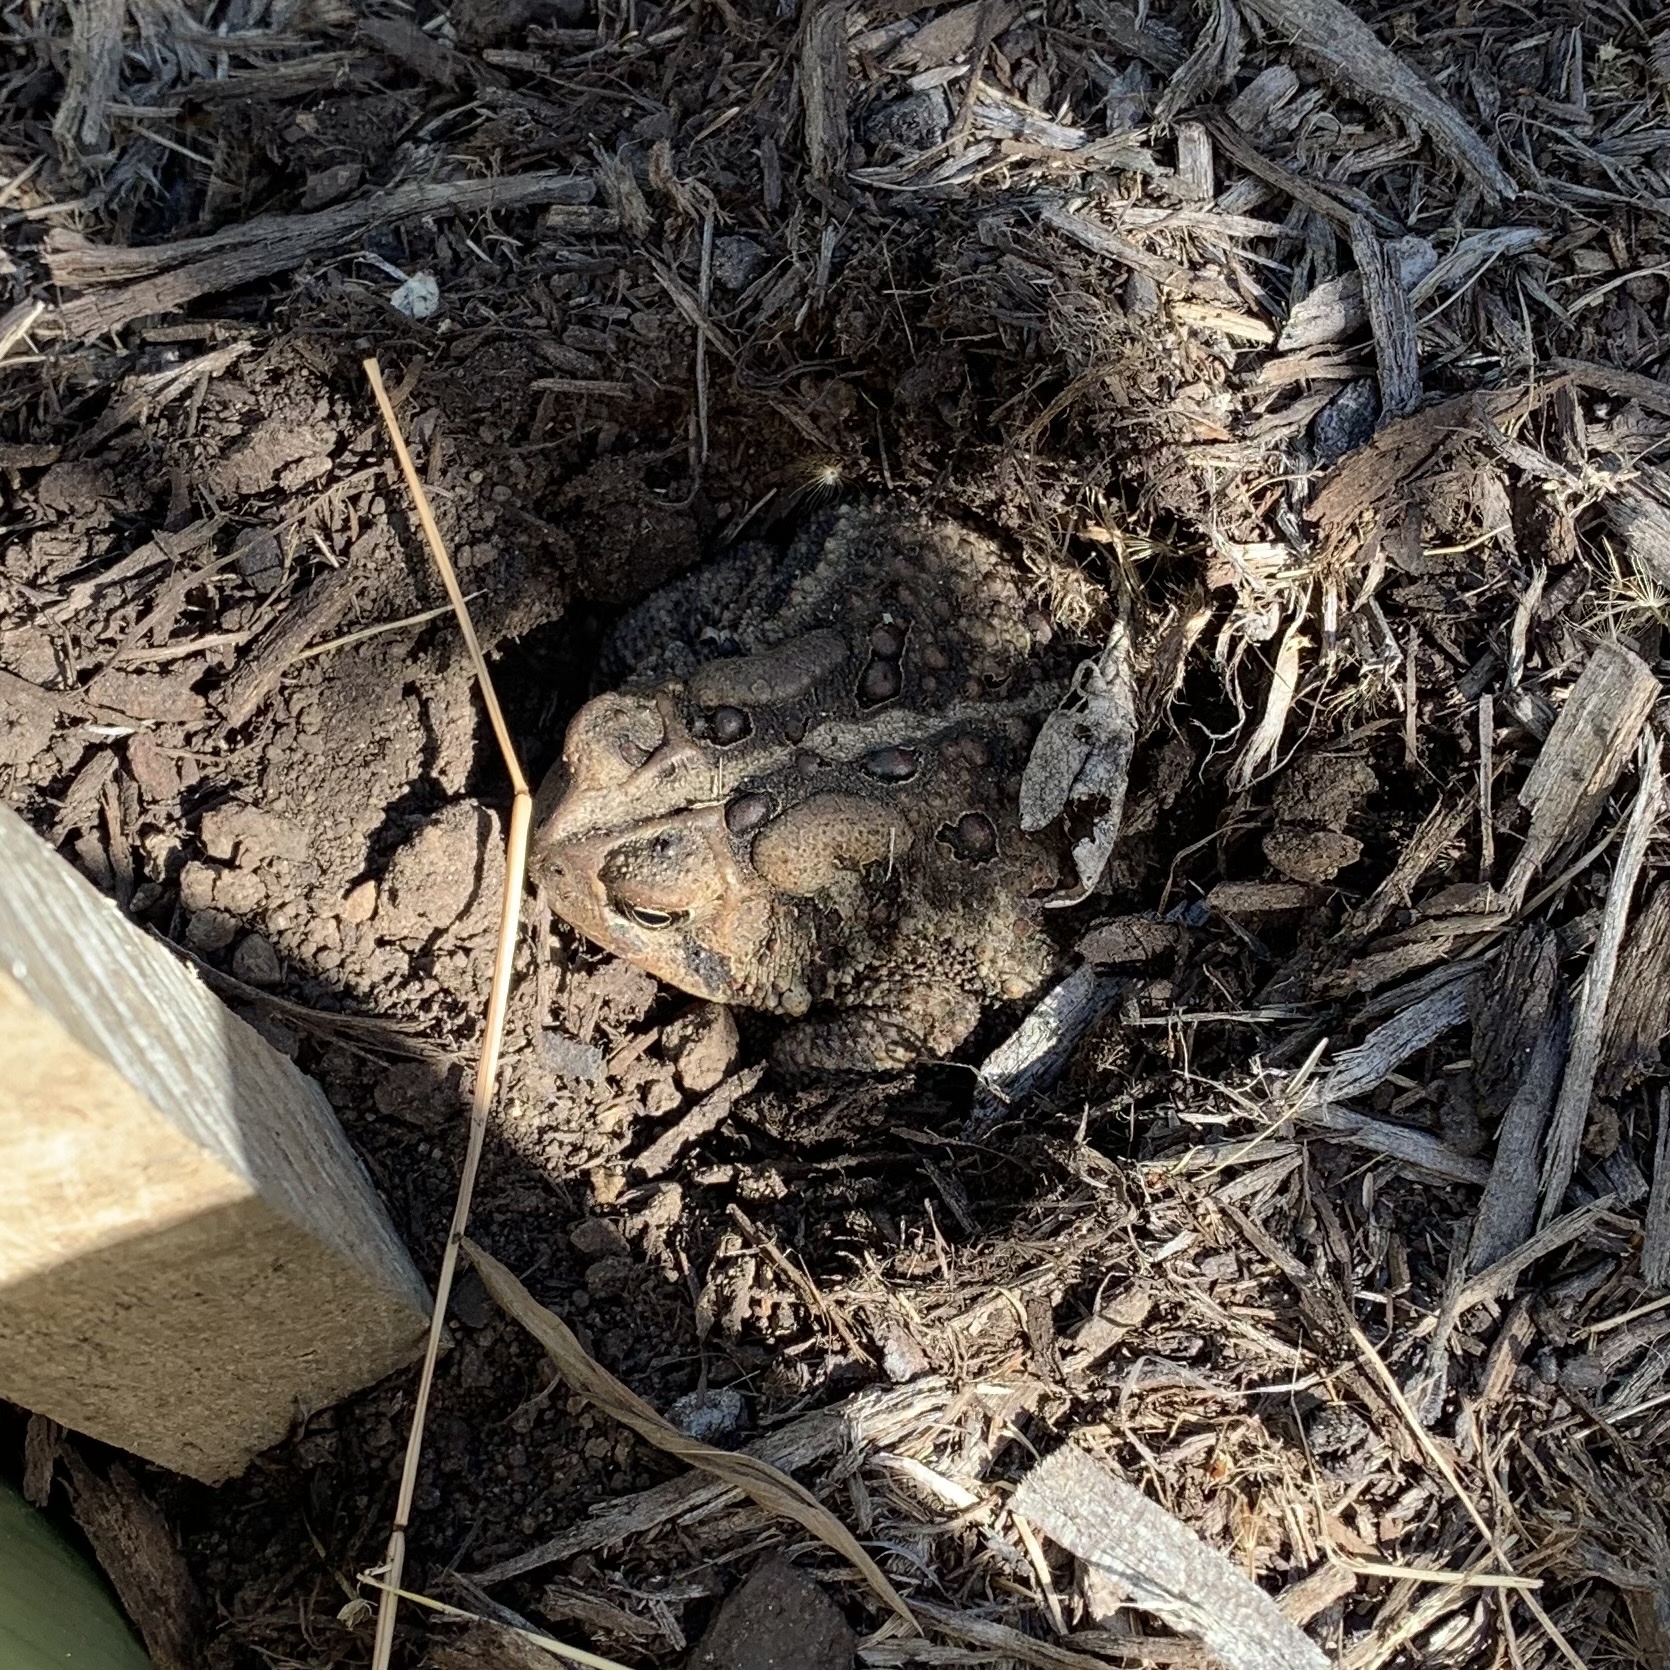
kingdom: Animalia
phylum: Chordata
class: Amphibia
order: Anura
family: Bufonidae
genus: Anaxyrus
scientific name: Anaxyrus americanus
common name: American toad
